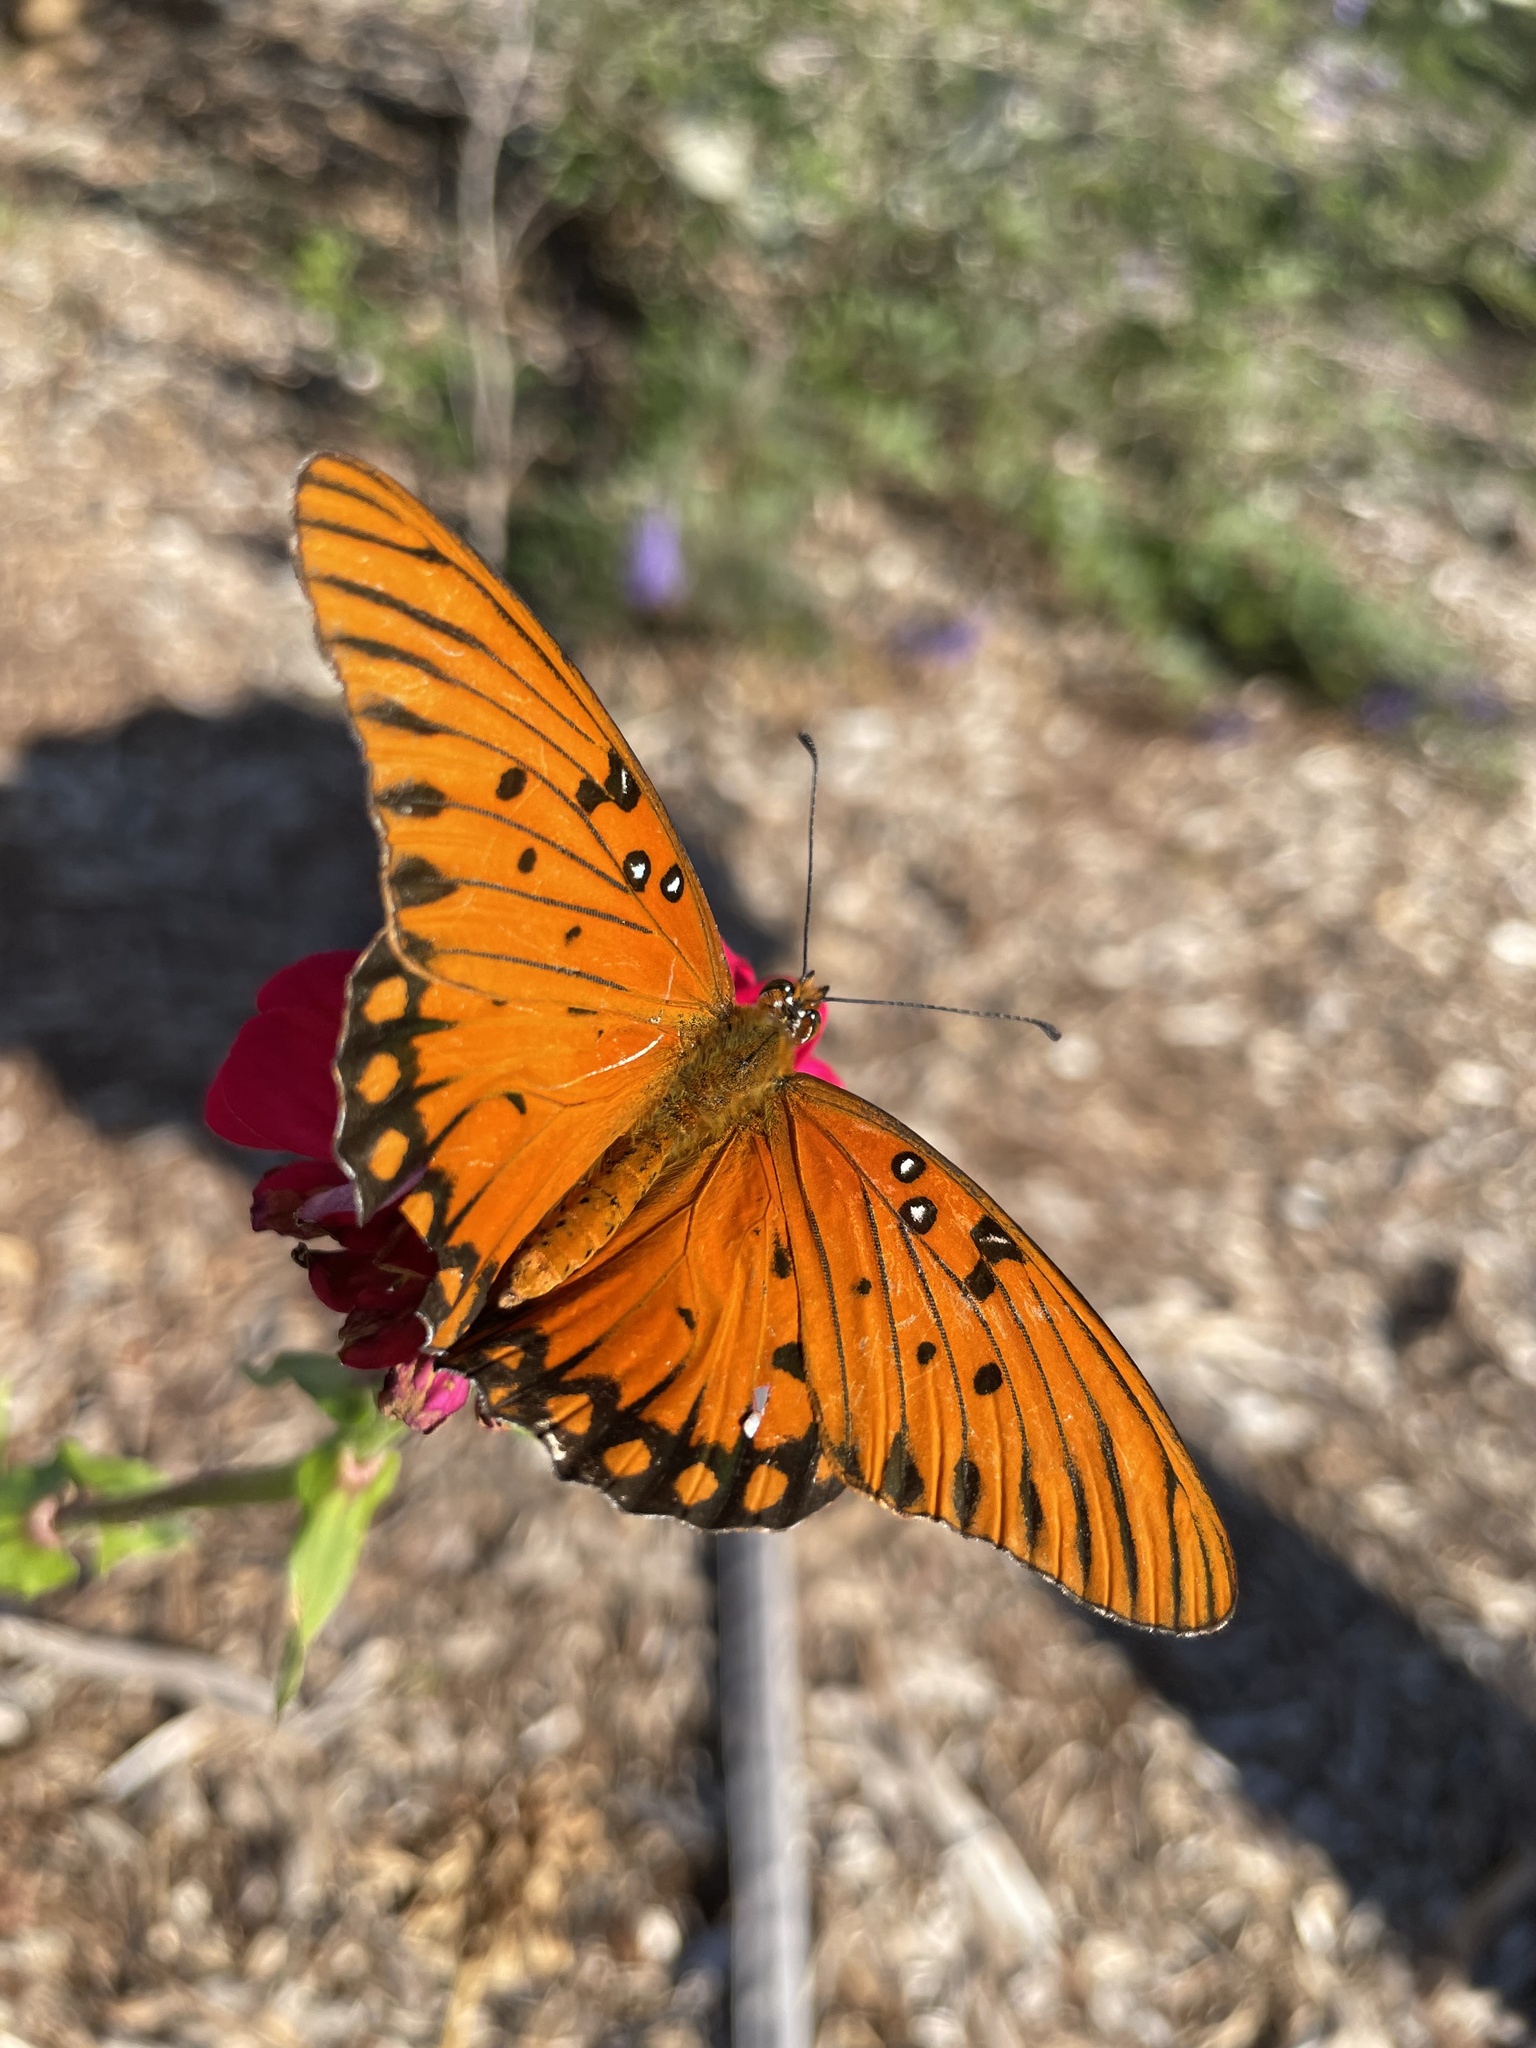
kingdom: Animalia
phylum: Arthropoda
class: Insecta
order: Lepidoptera
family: Nymphalidae
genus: Dione
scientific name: Dione vanillae
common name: Gulf fritillary
